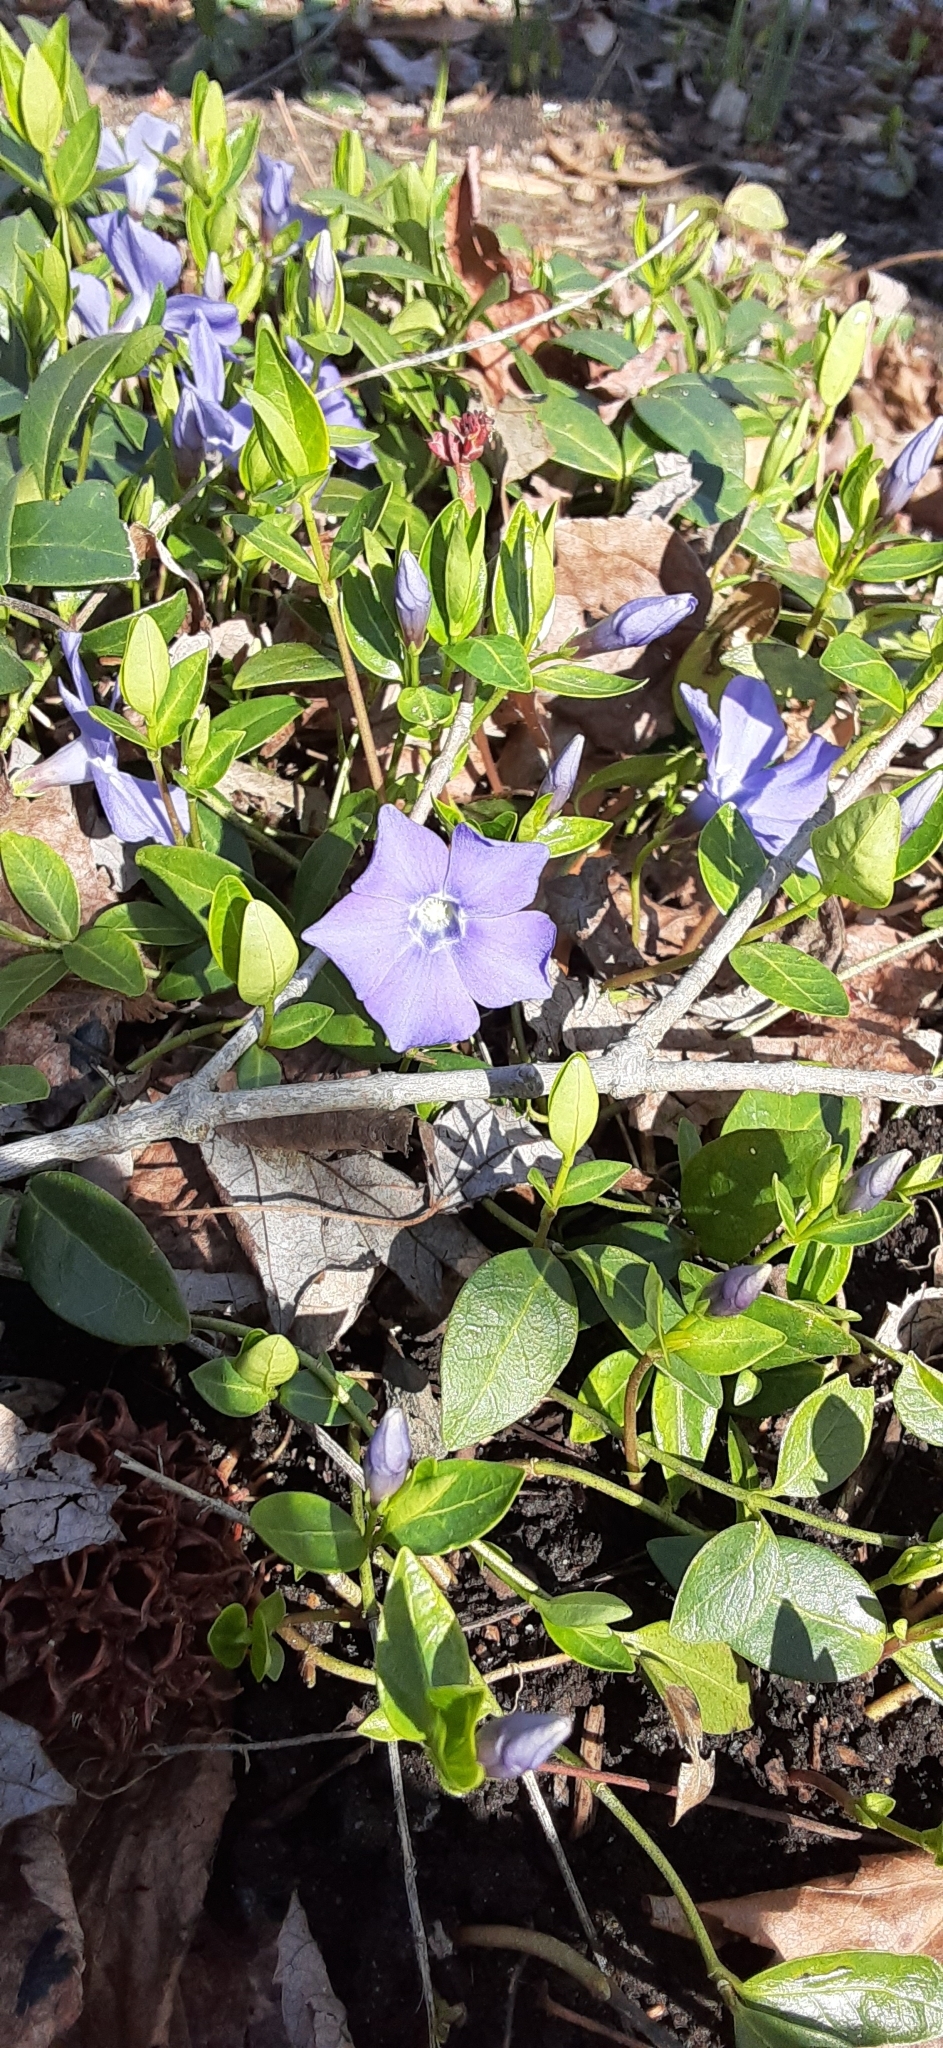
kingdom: Plantae
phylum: Tracheophyta
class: Magnoliopsida
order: Gentianales
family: Apocynaceae
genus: Vinca
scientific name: Vinca minor
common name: Lesser periwinkle
